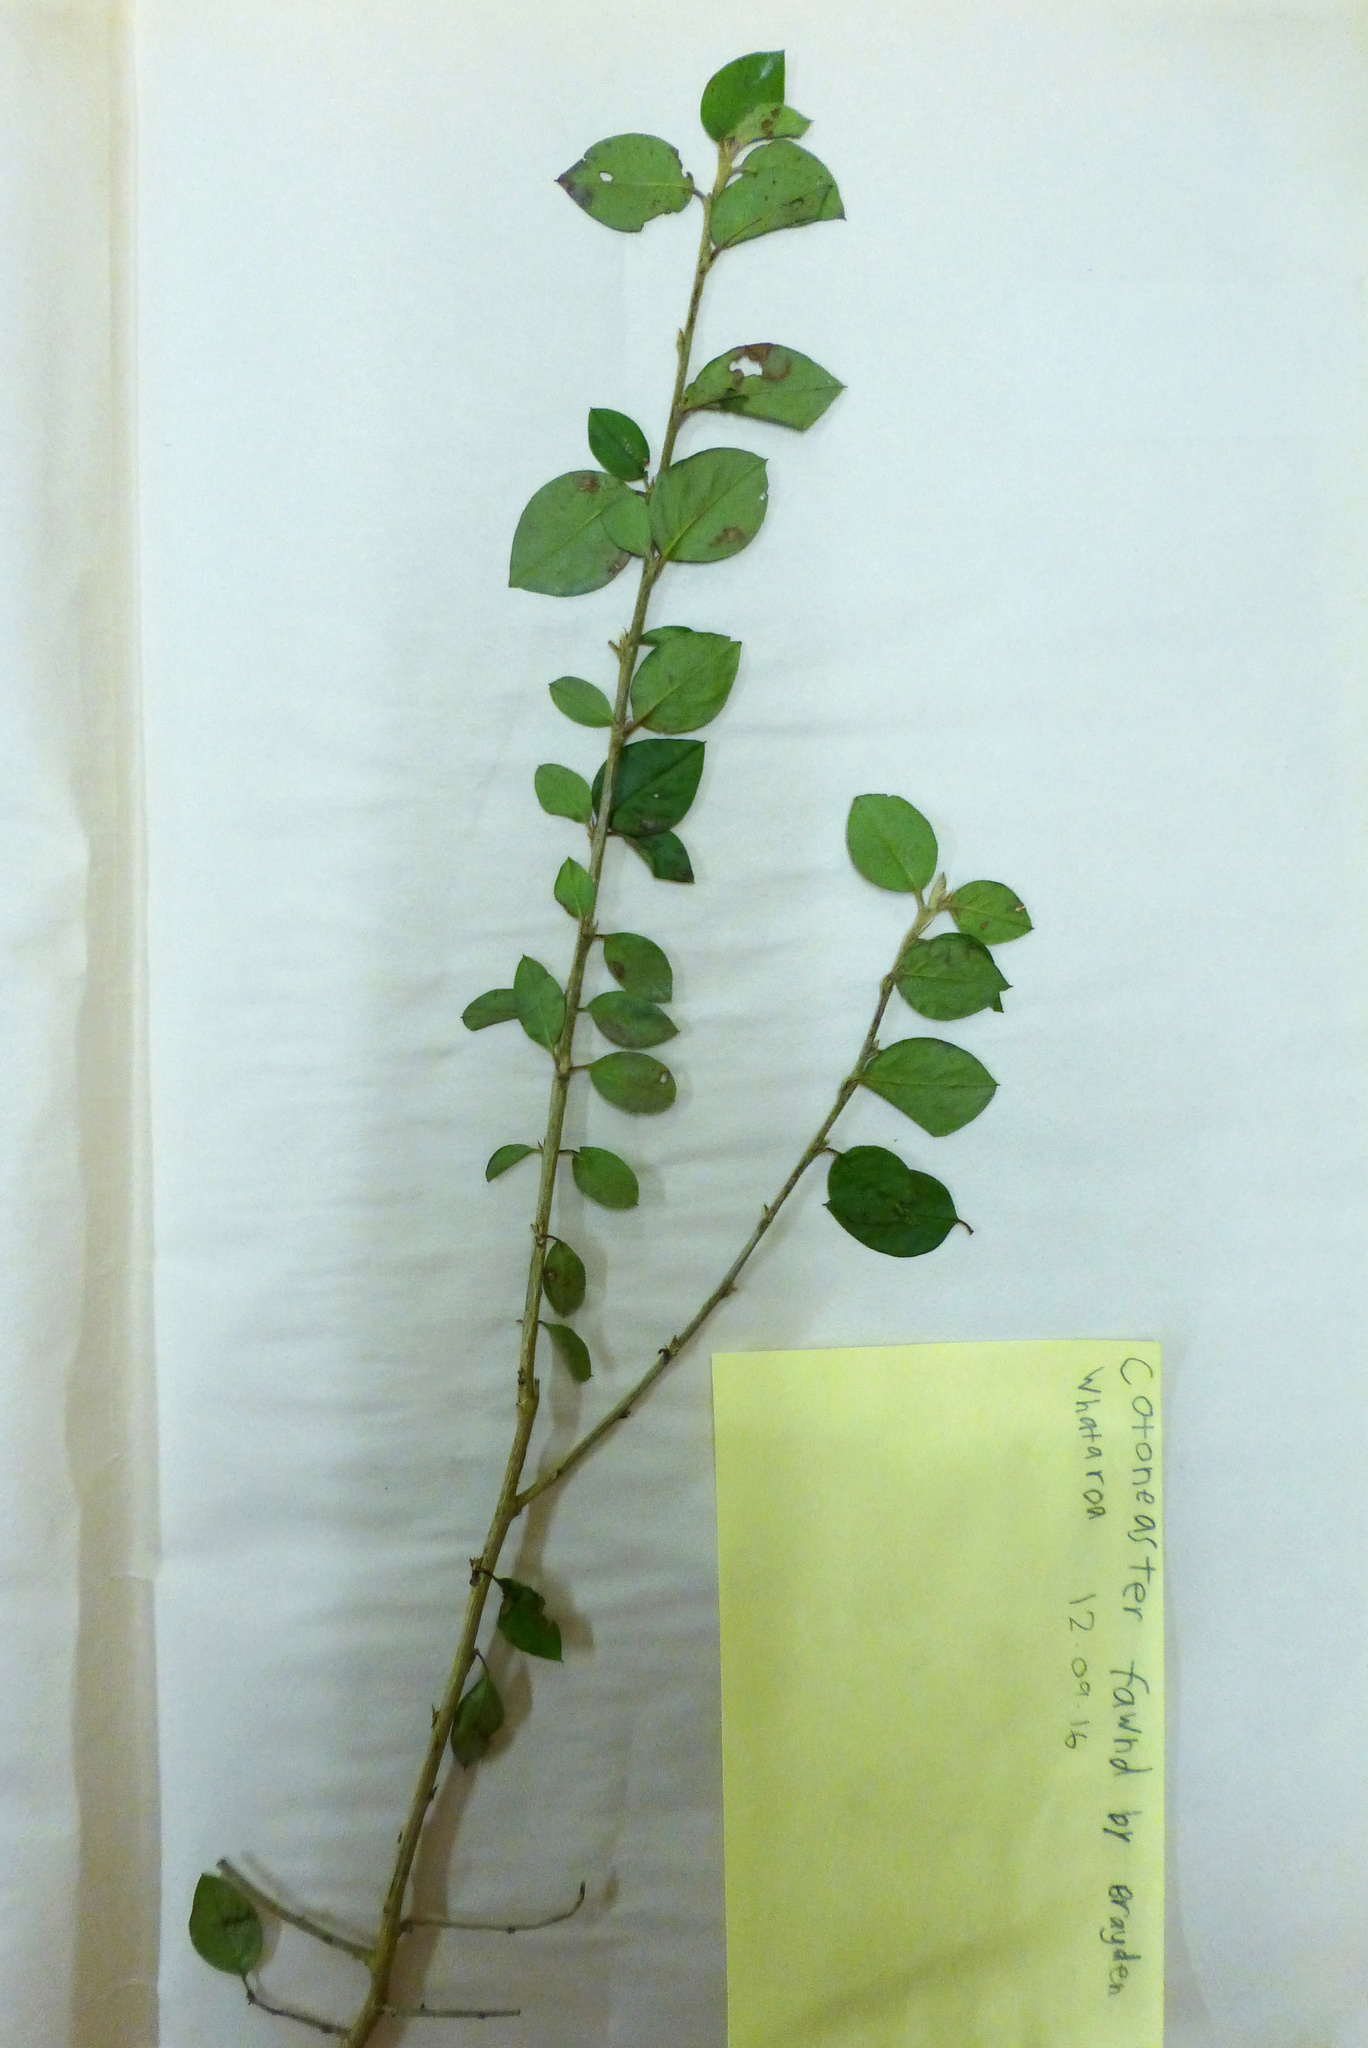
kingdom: Plantae
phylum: Tracheophyta
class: Magnoliopsida
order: Rosales
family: Rosaceae
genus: Cotoneaster
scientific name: Cotoneaster simonsii
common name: Himalayan cotoneaster
